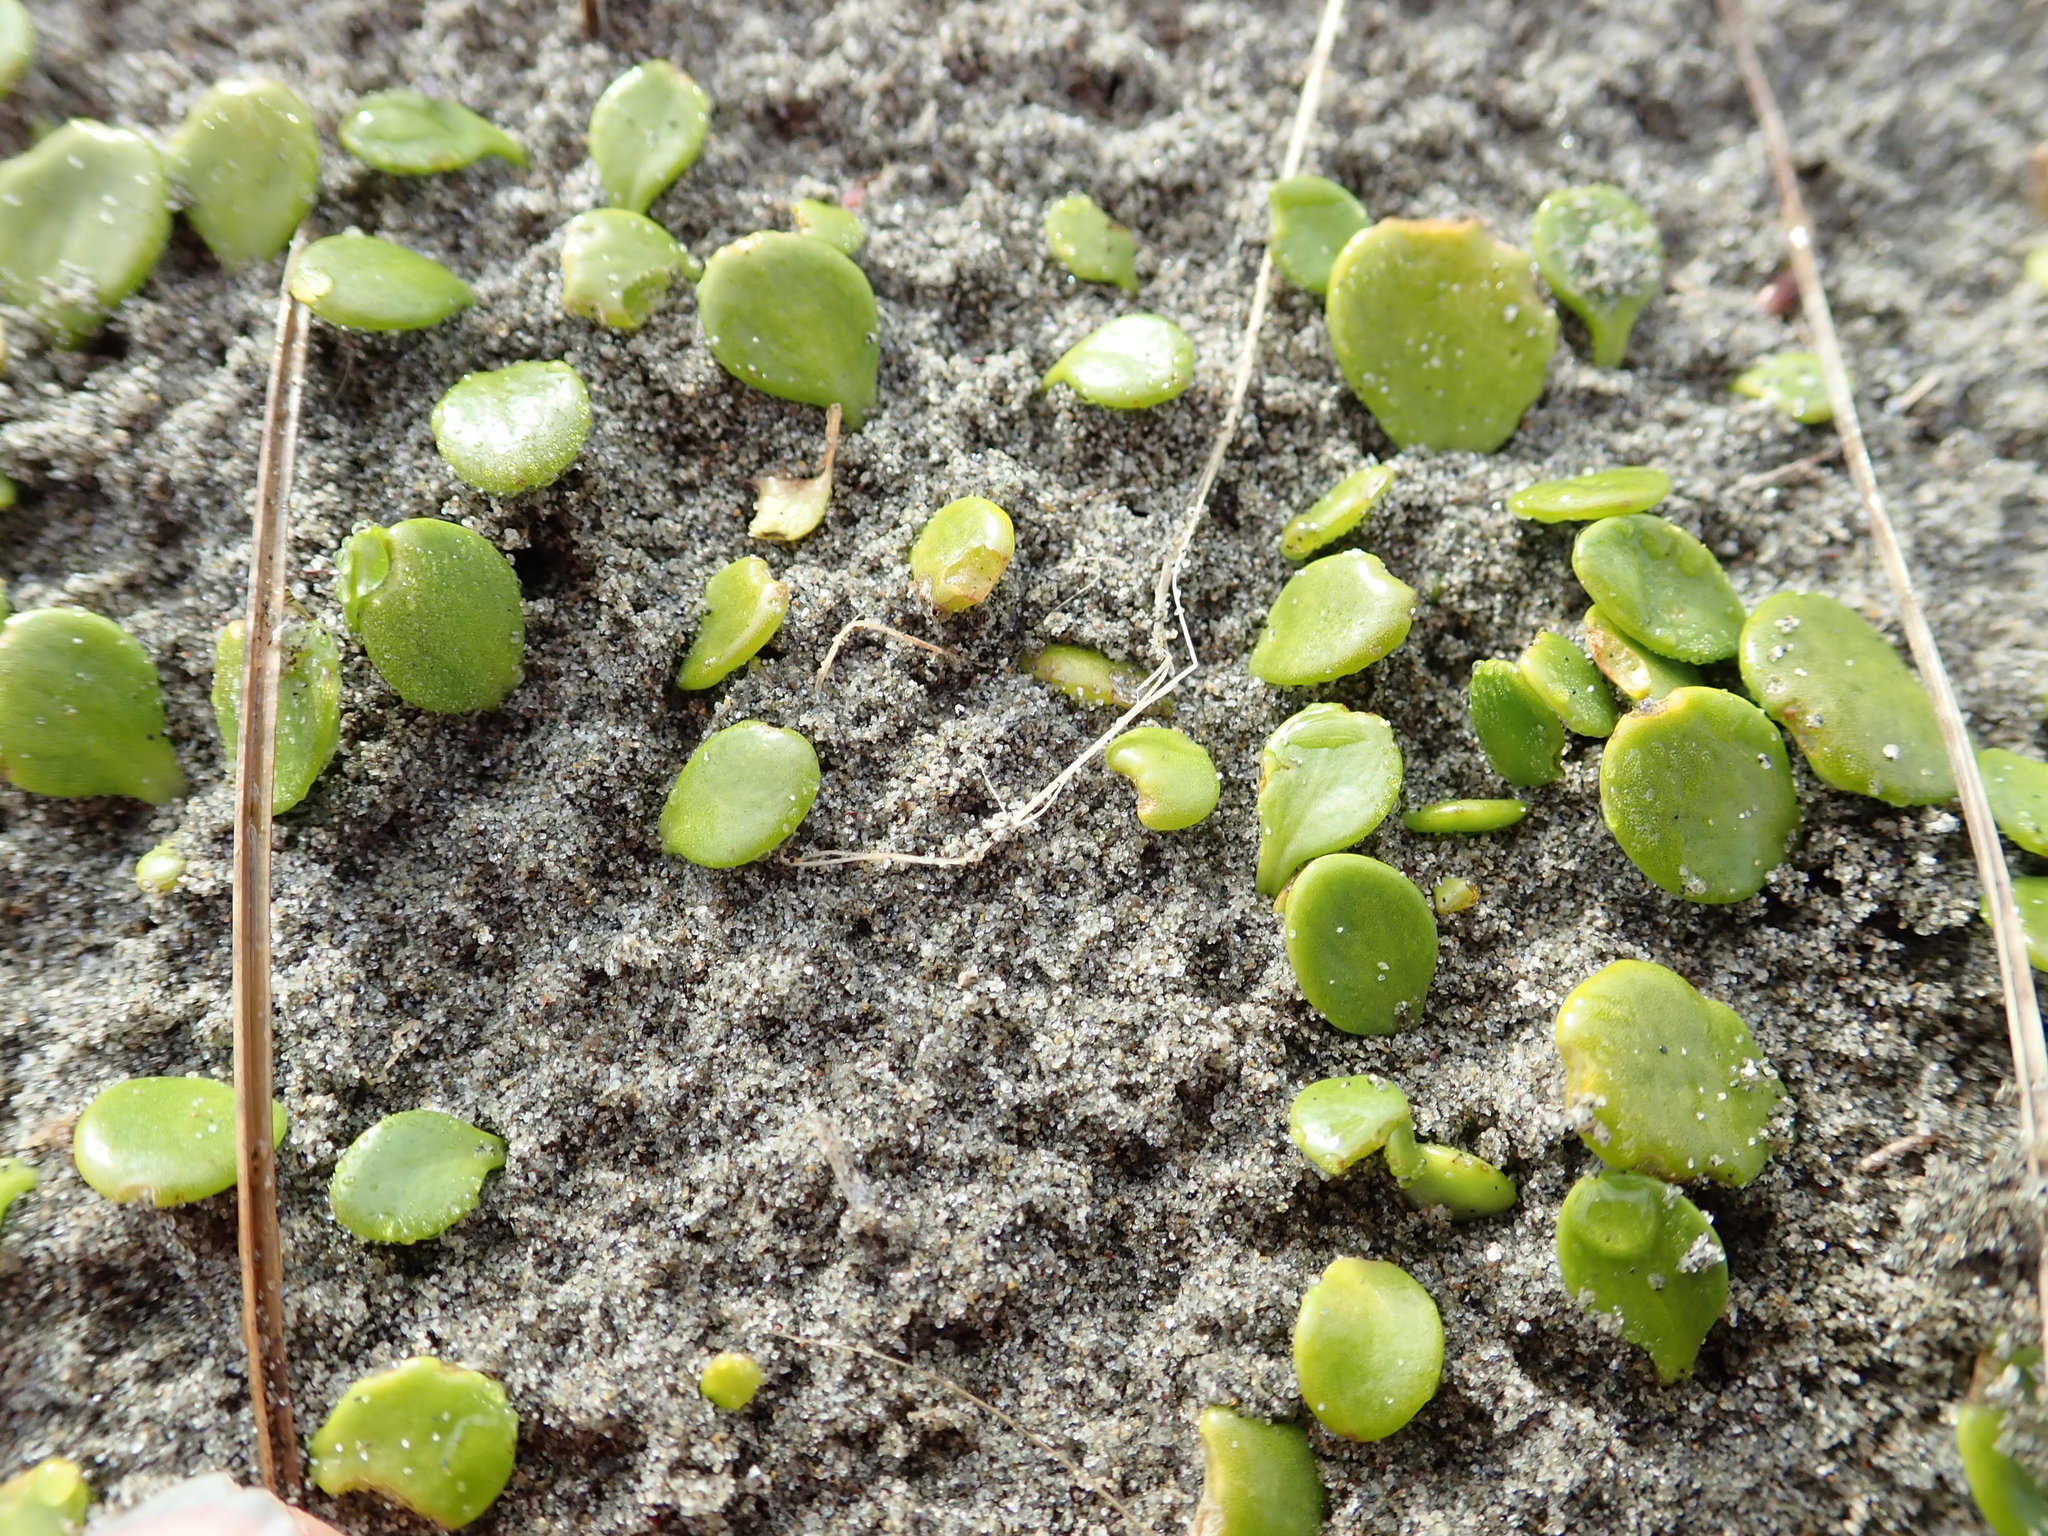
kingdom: Plantae
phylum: Tracheophyta
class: Magnoliopsida
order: Asterales
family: Goodeniaceae
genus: Goodenia
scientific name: Goodenia heenanii
